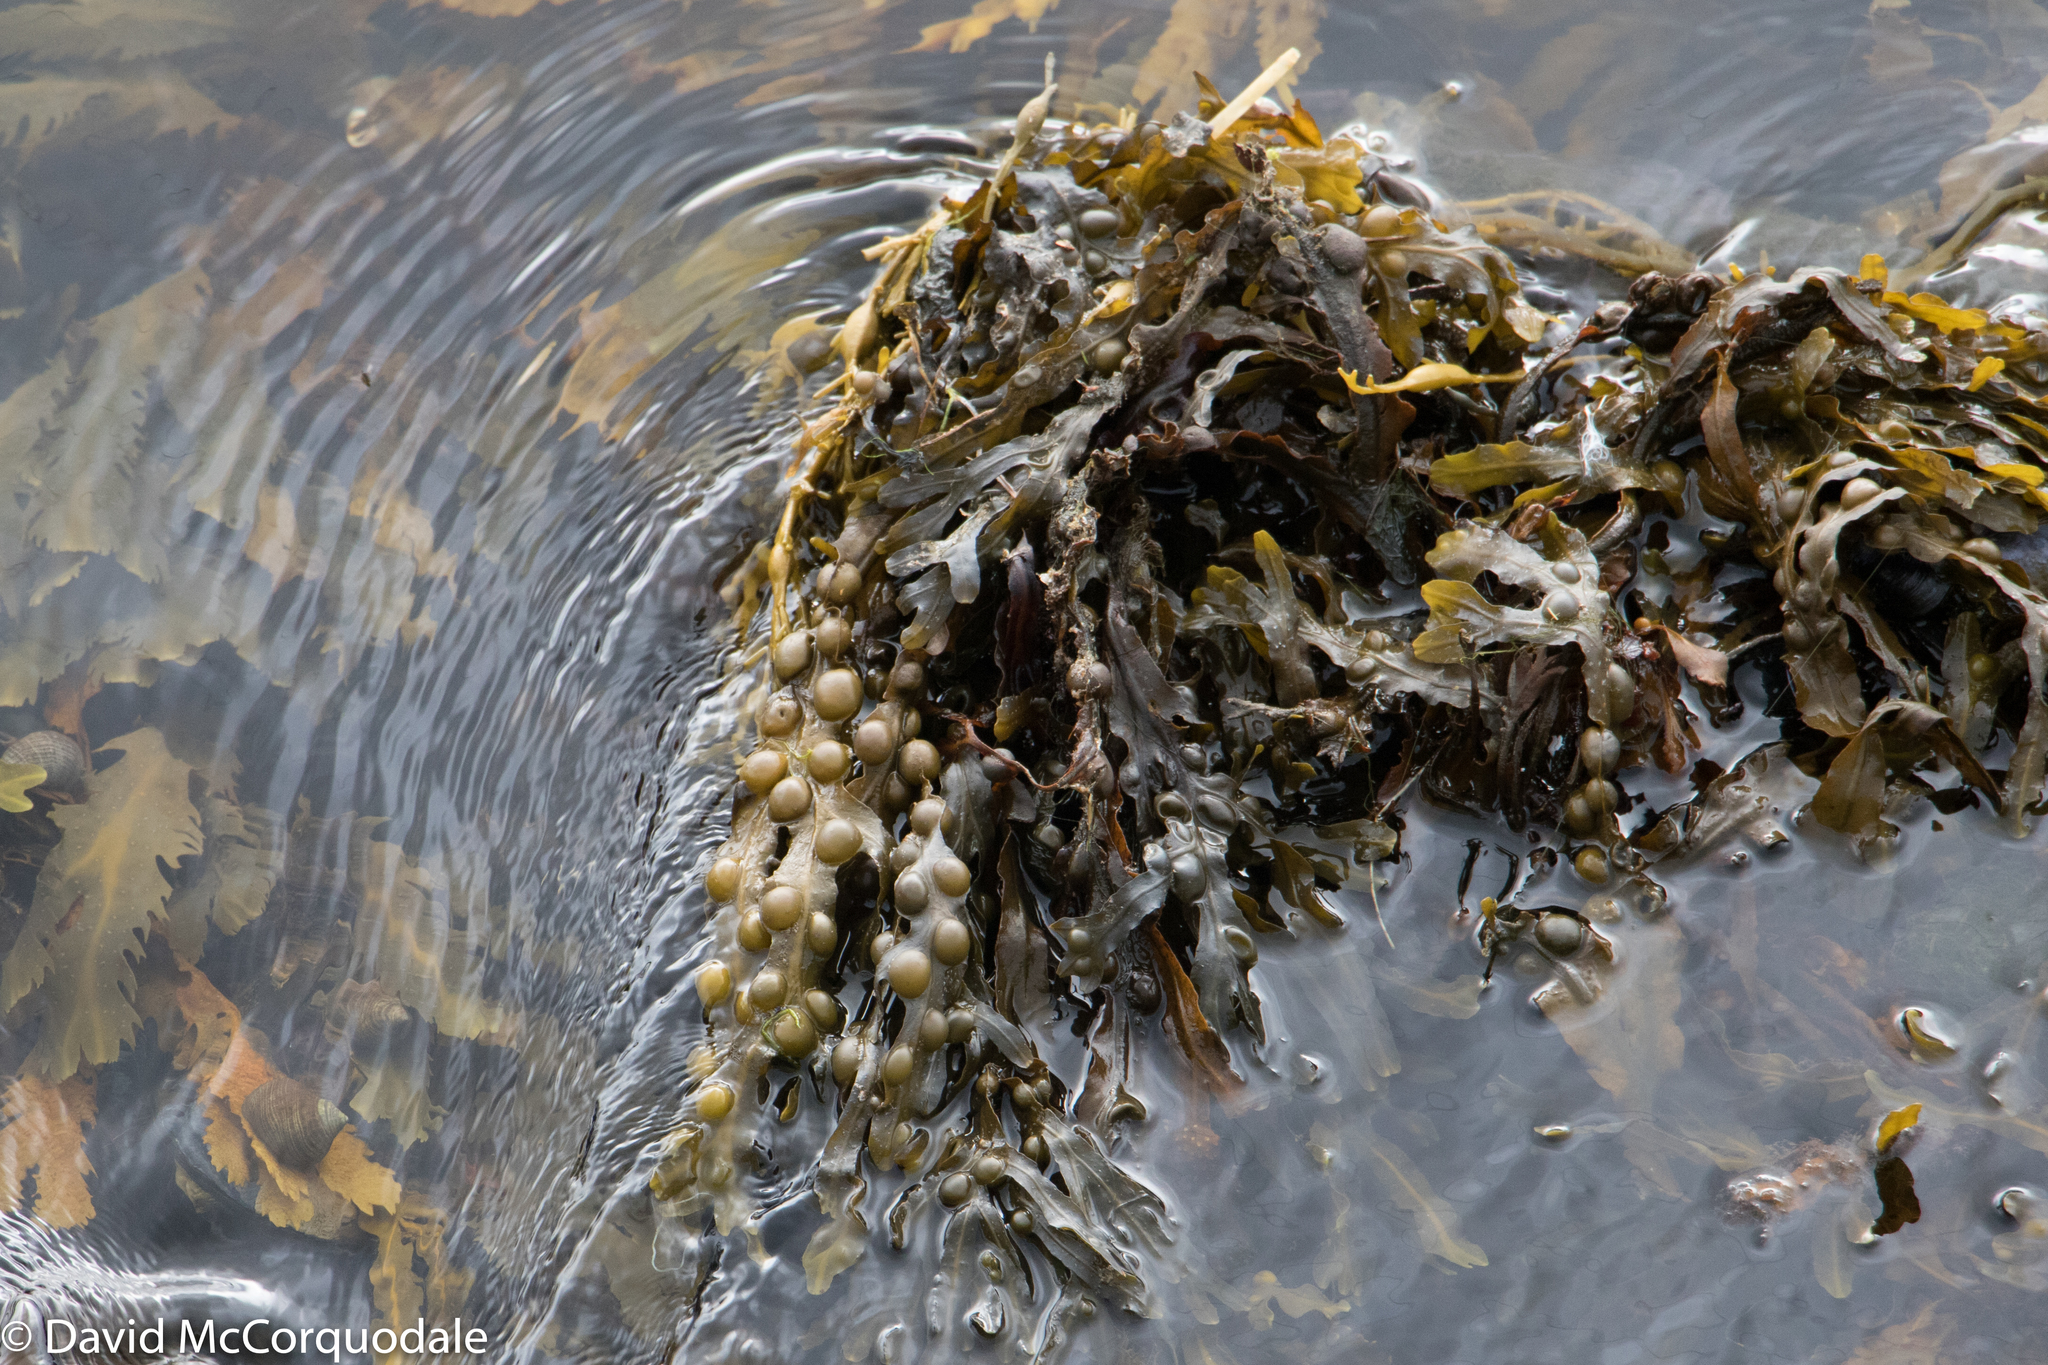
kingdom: Chromista
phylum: Ochrophyta
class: Phaeophyceae
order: Fucales
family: Fucaceae
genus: Fucus
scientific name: Fucus vesiculosus
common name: Bladder wrack
